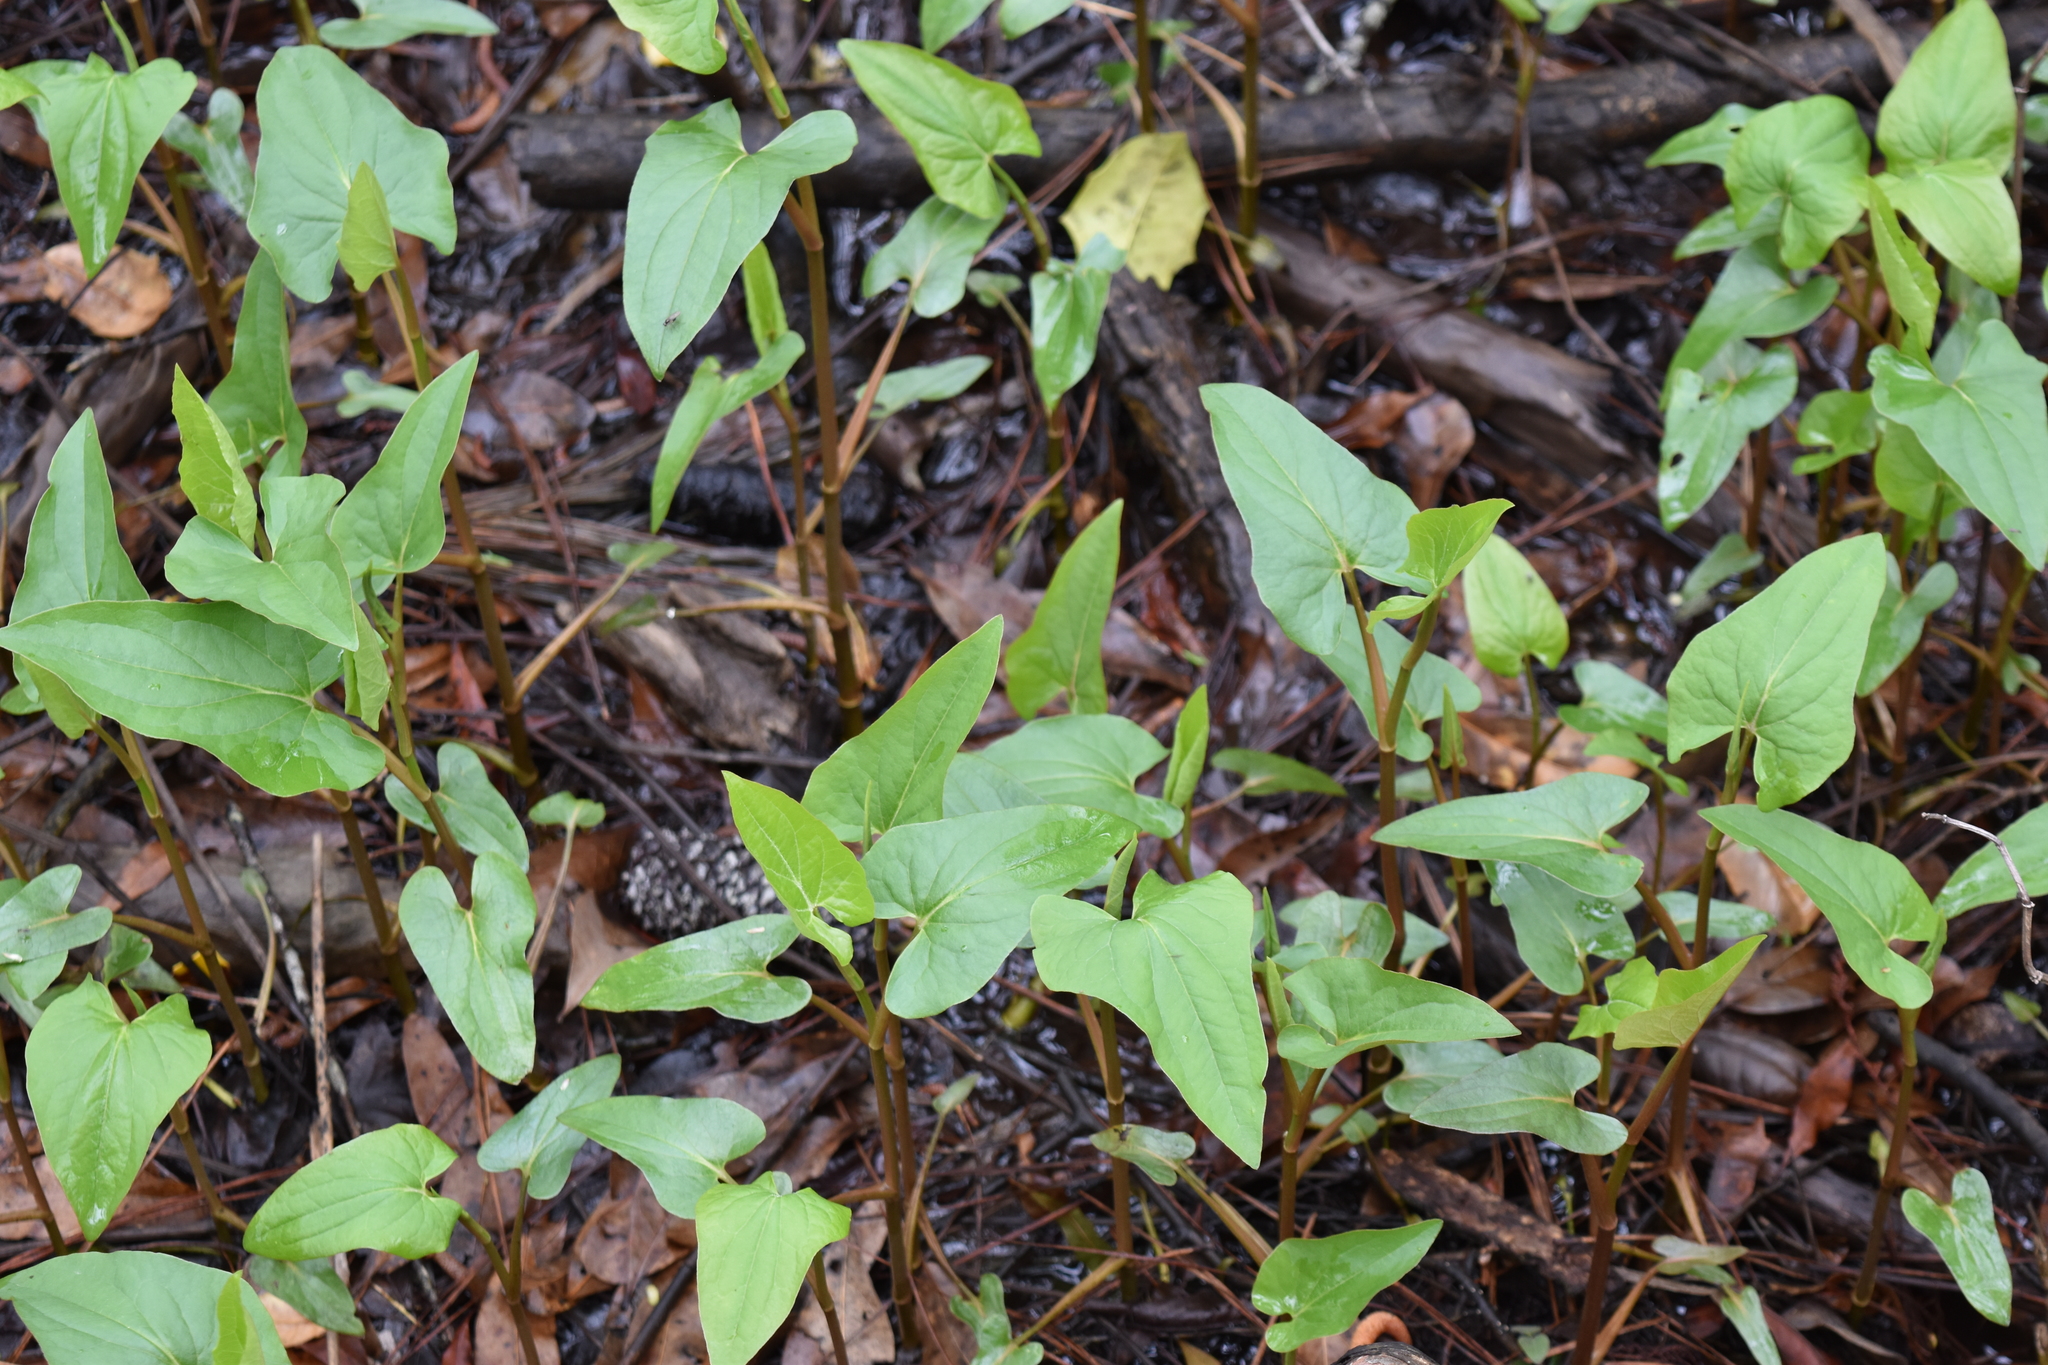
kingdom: Plantae
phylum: Tracheophyta
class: Magnoliopsida
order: Piperales
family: Saururaceae
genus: Saururus
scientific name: Saururus cernuus
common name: Lizard's-tail
